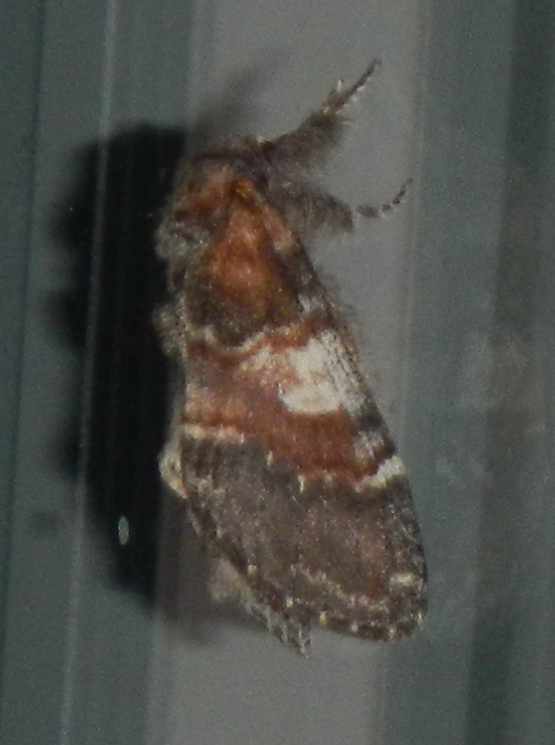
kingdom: Animalia
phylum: Arthropoda
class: Insecta
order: Lepidoptera
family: Notodontidae
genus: Peridea
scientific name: Peridea ferruginea
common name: Chocolate prominent
